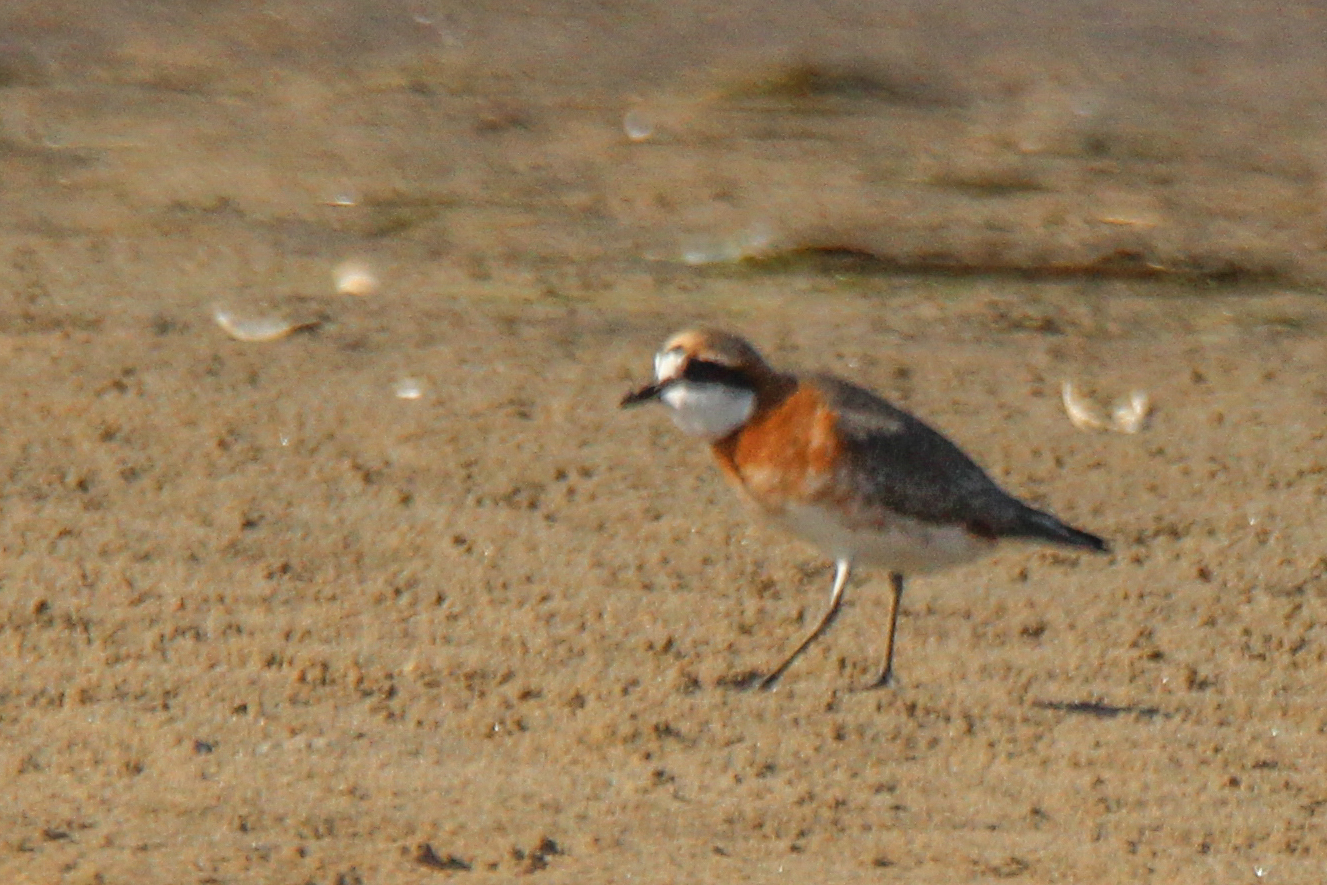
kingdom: Animalia
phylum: Chordata
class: Aves
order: Charadriiformes
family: Charadriidae
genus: Anarhynchus
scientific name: Anarhynchus
